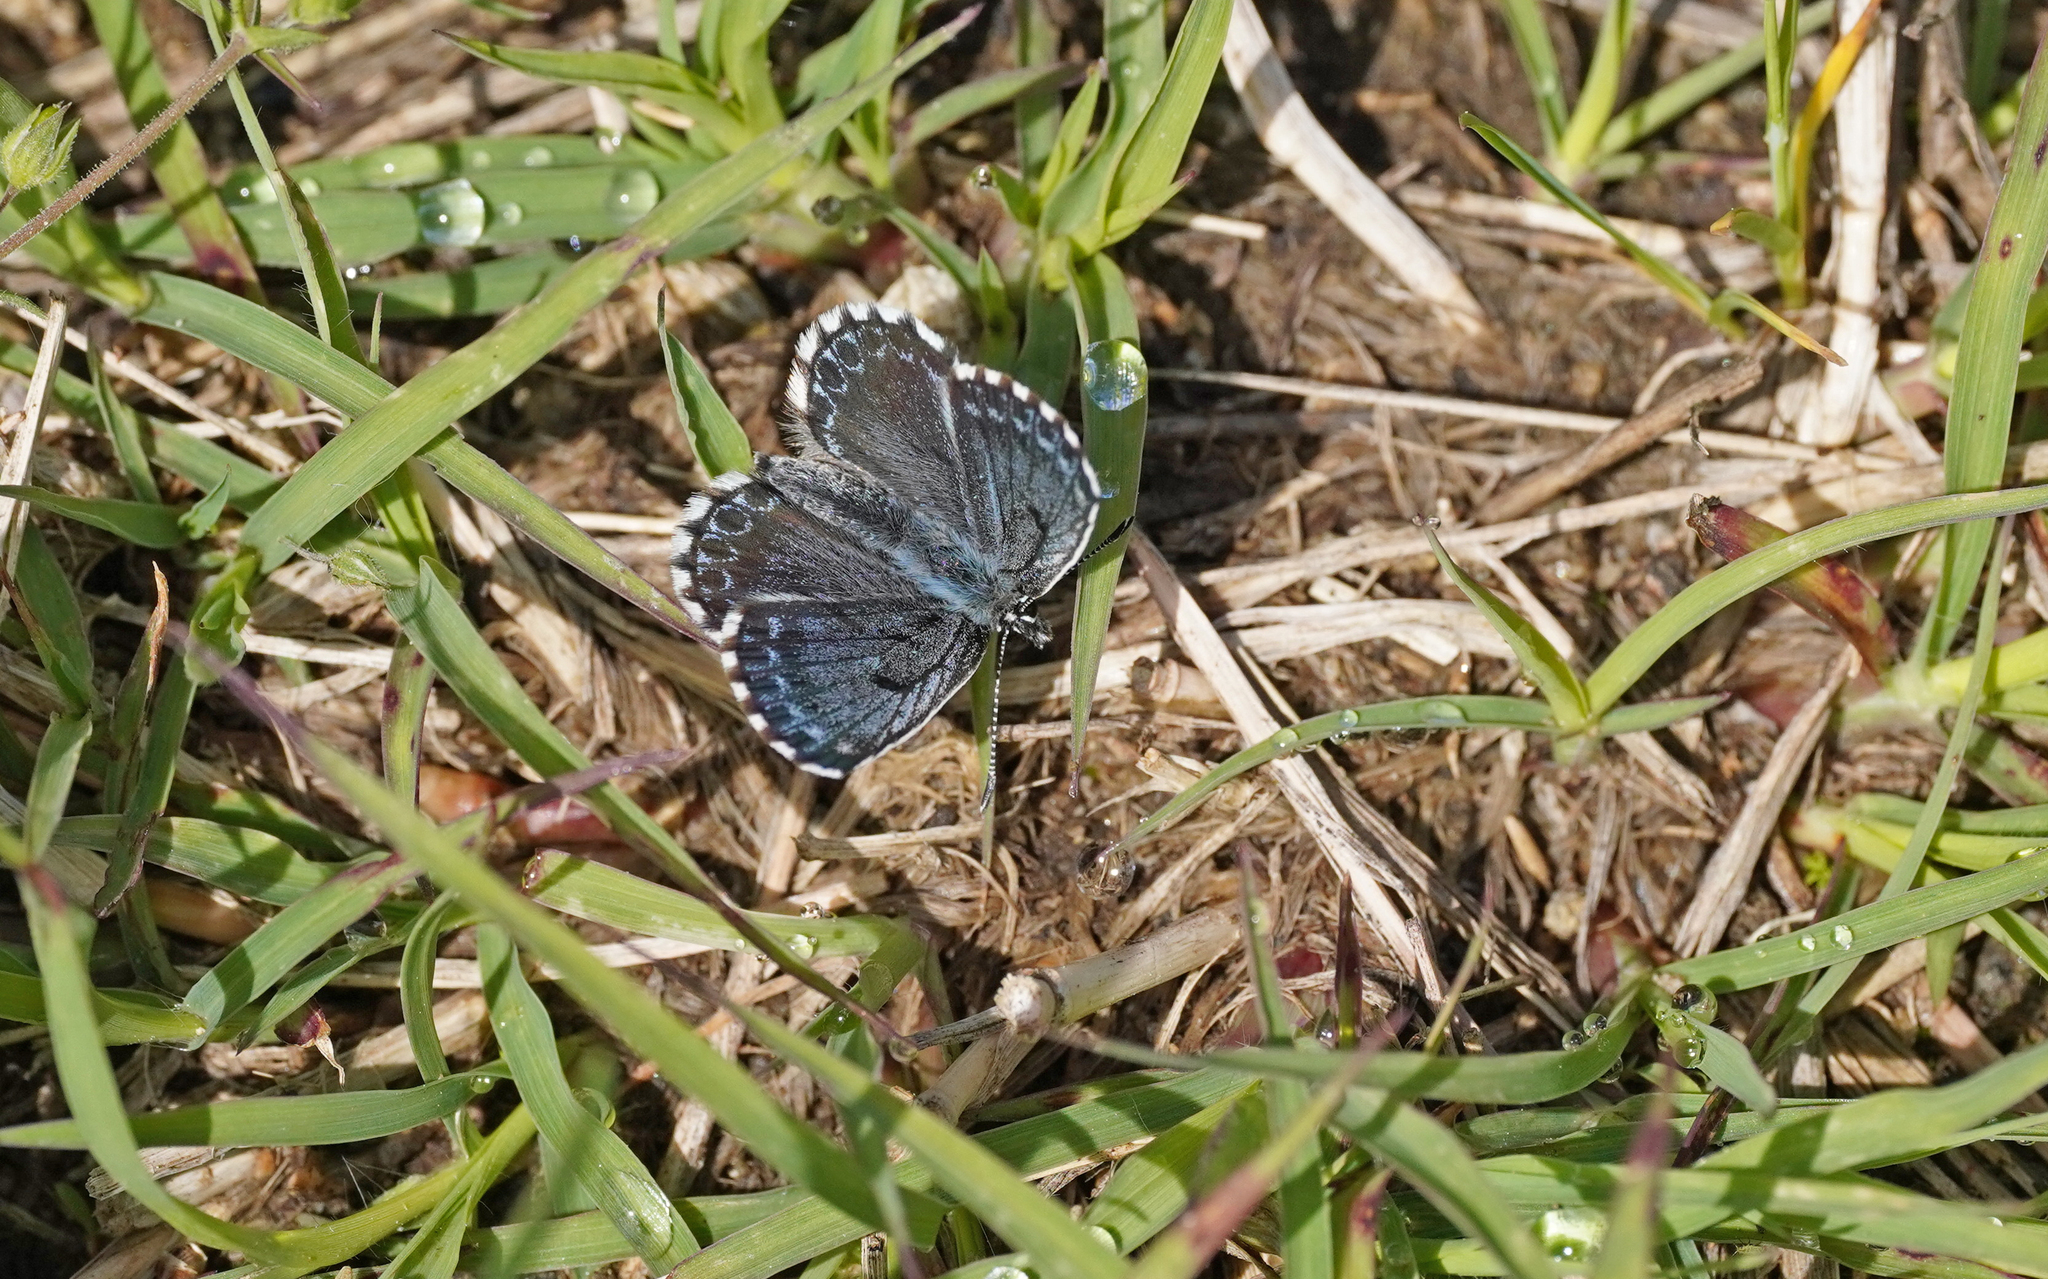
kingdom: Animalia
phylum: Arthropoda
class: Insecta
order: Lepidoptera
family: Lycaenidae
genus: Scolitantides
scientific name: Scolitantides orion
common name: Chequered blue
